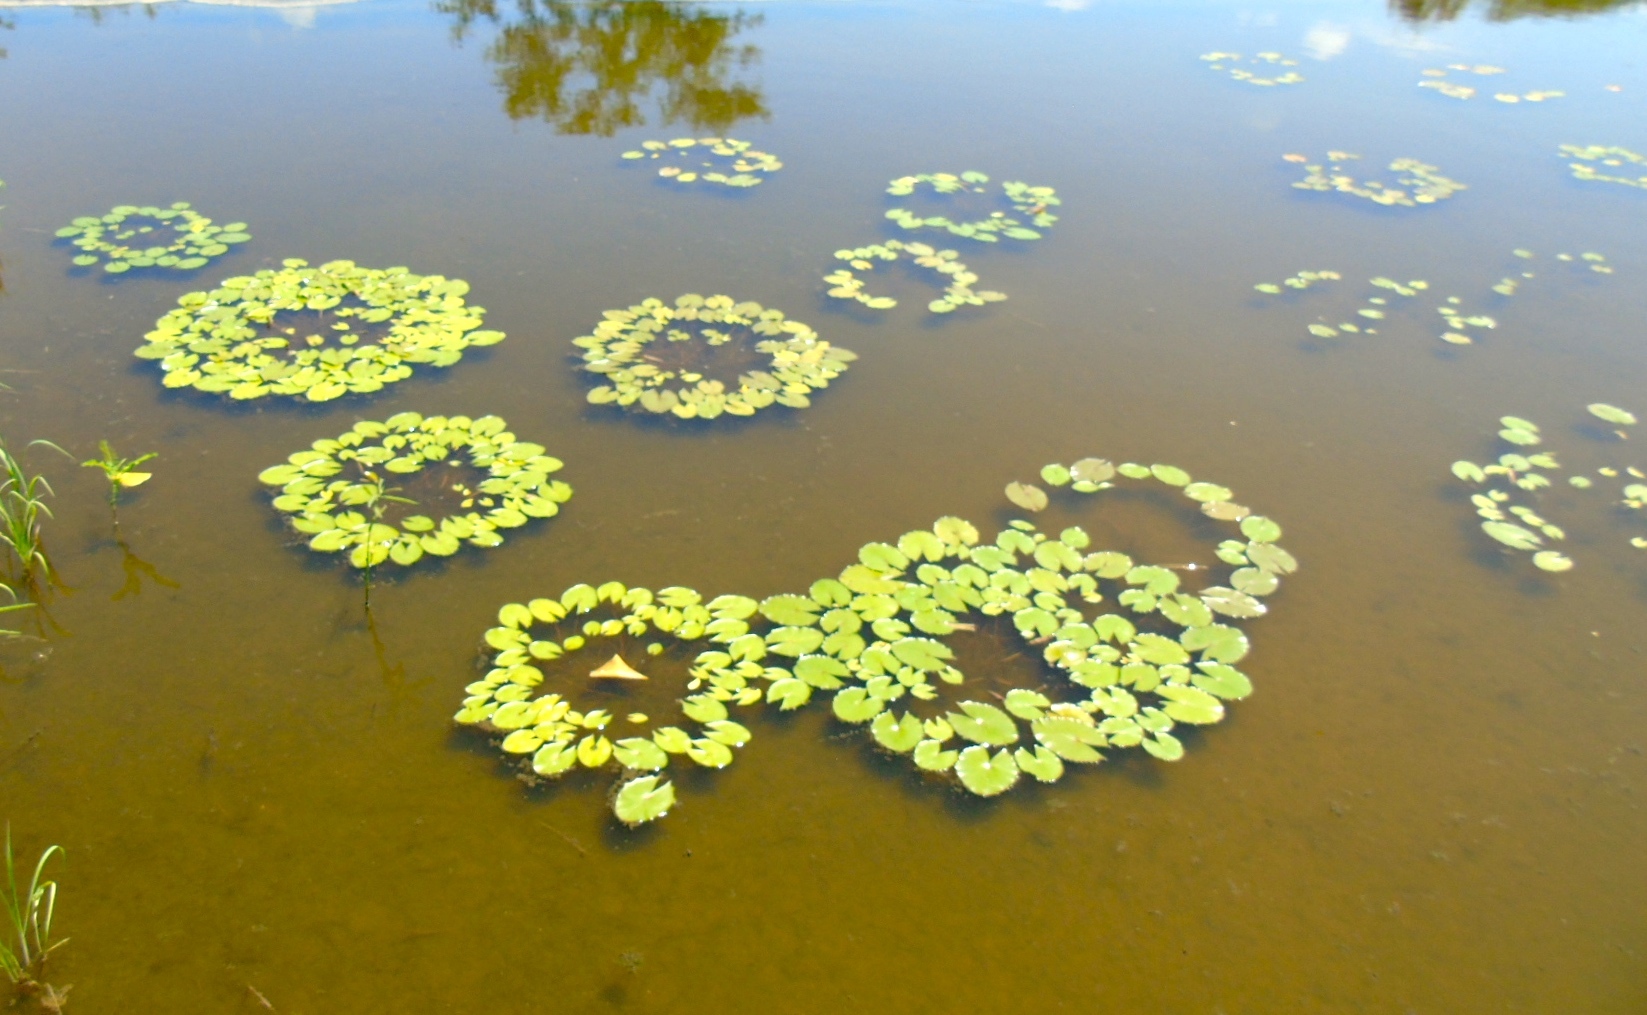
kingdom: Plantae
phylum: Tracheophyta
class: Magnoliopsida
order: Nymphaeales
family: Nymphaeaceae
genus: Nymphaea
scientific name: Nymphaea
